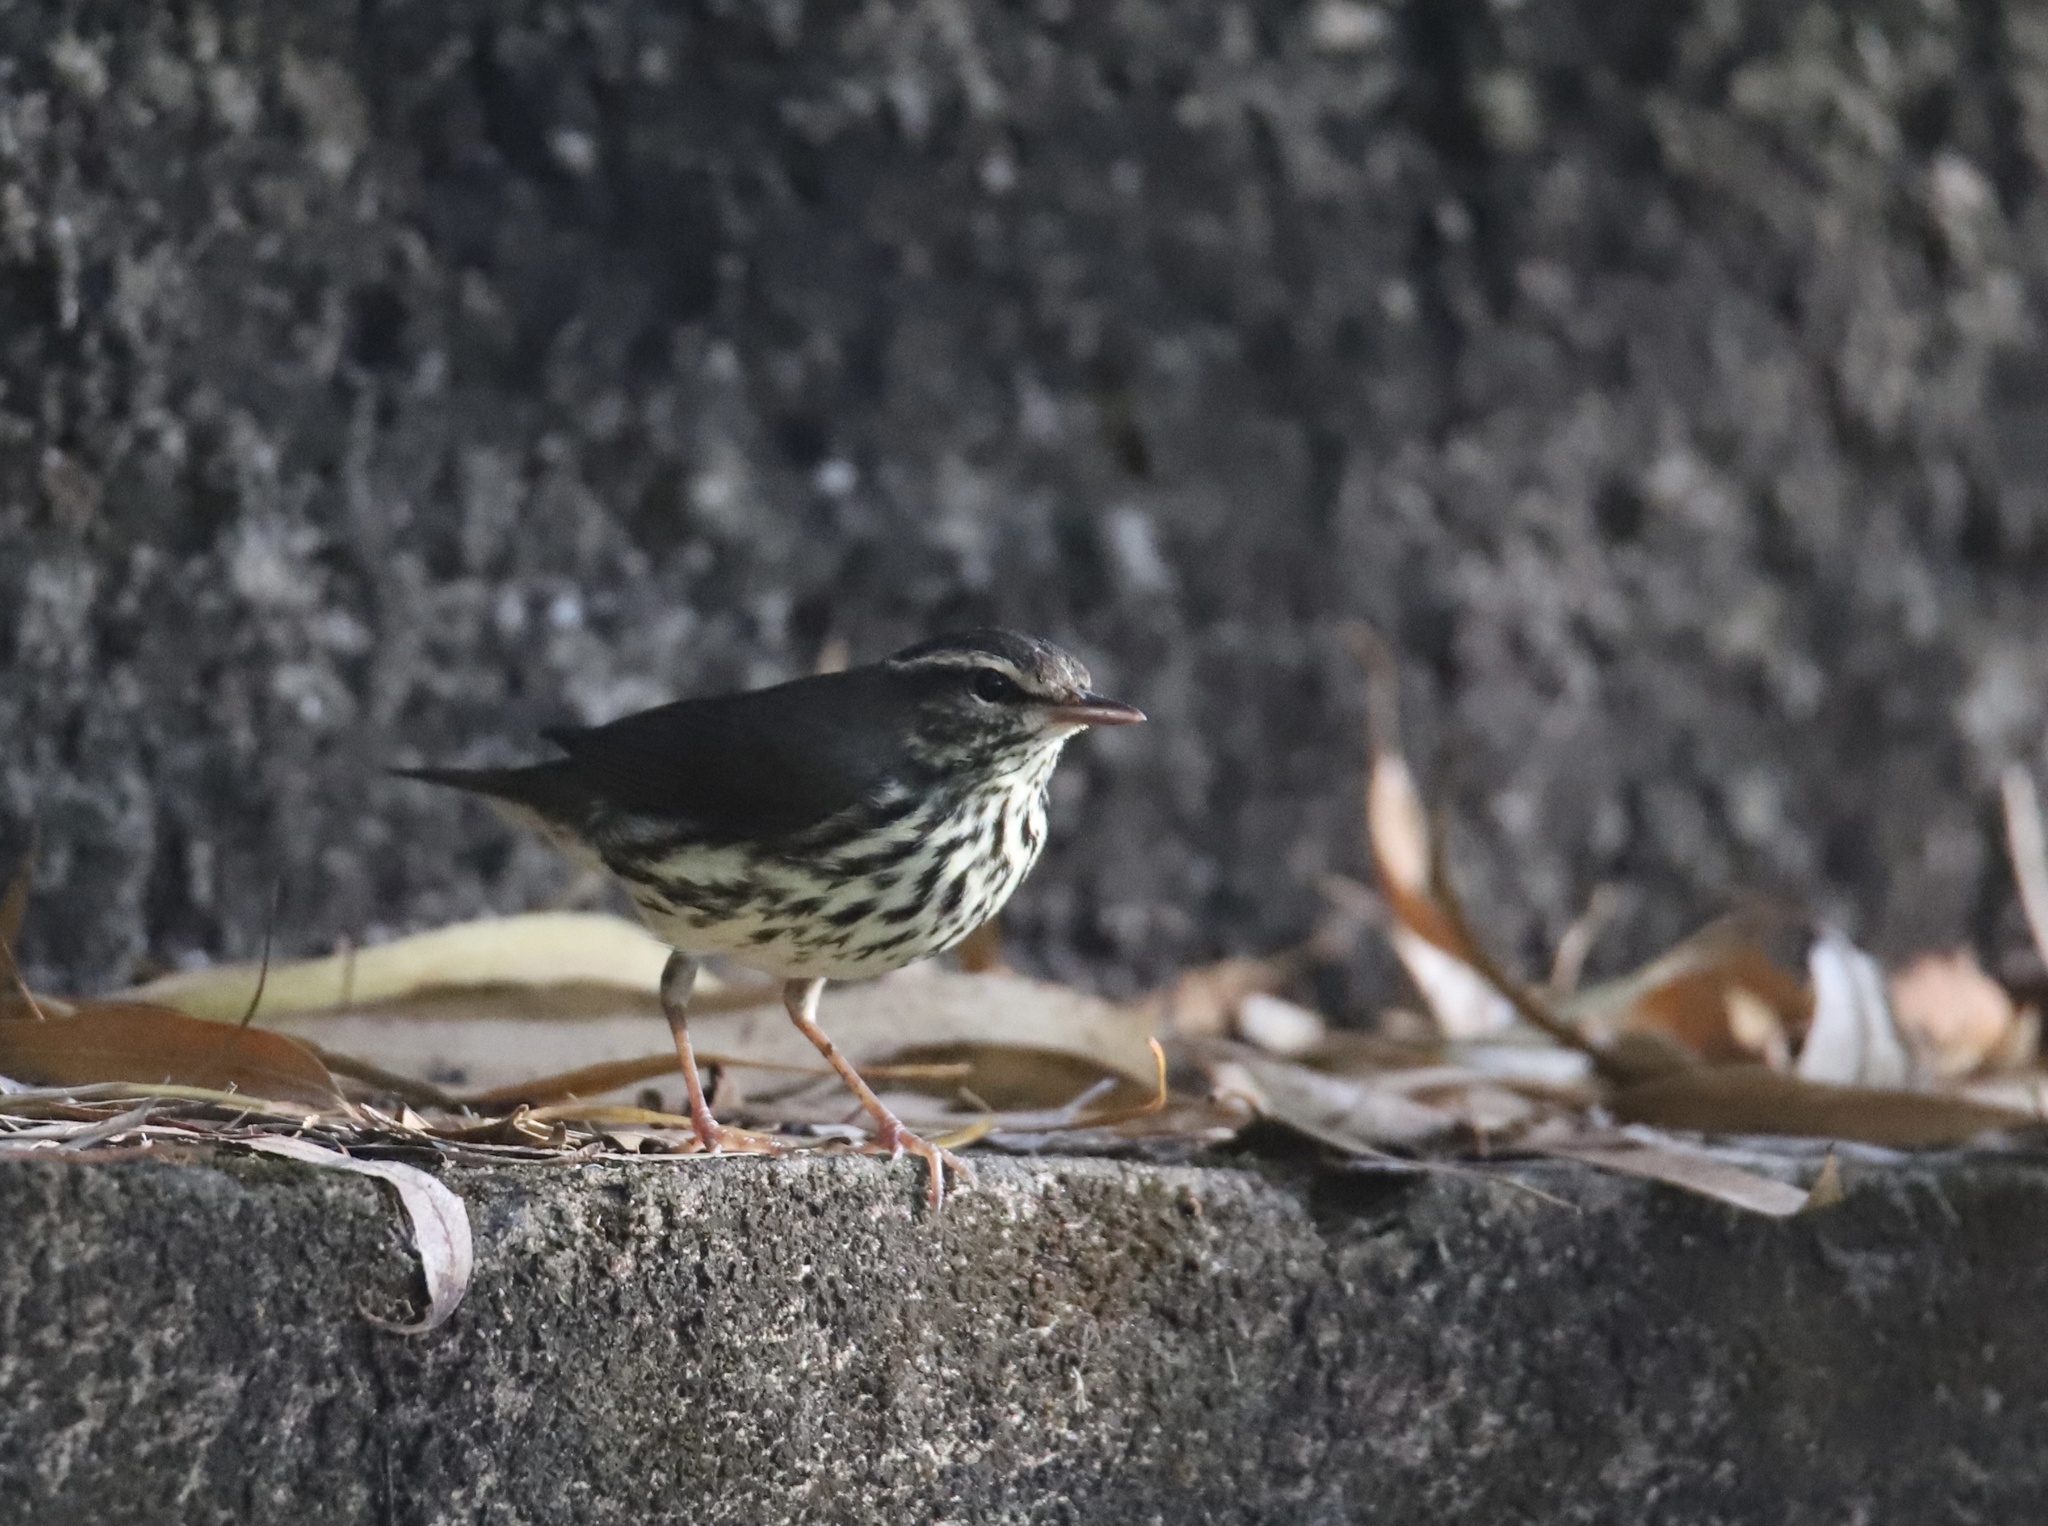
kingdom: Animalia
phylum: Chordata
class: Aves
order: Passeriformes
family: Parulidae
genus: Parkesia
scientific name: Parkesia noveboracensis
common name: Northern waterthrush
